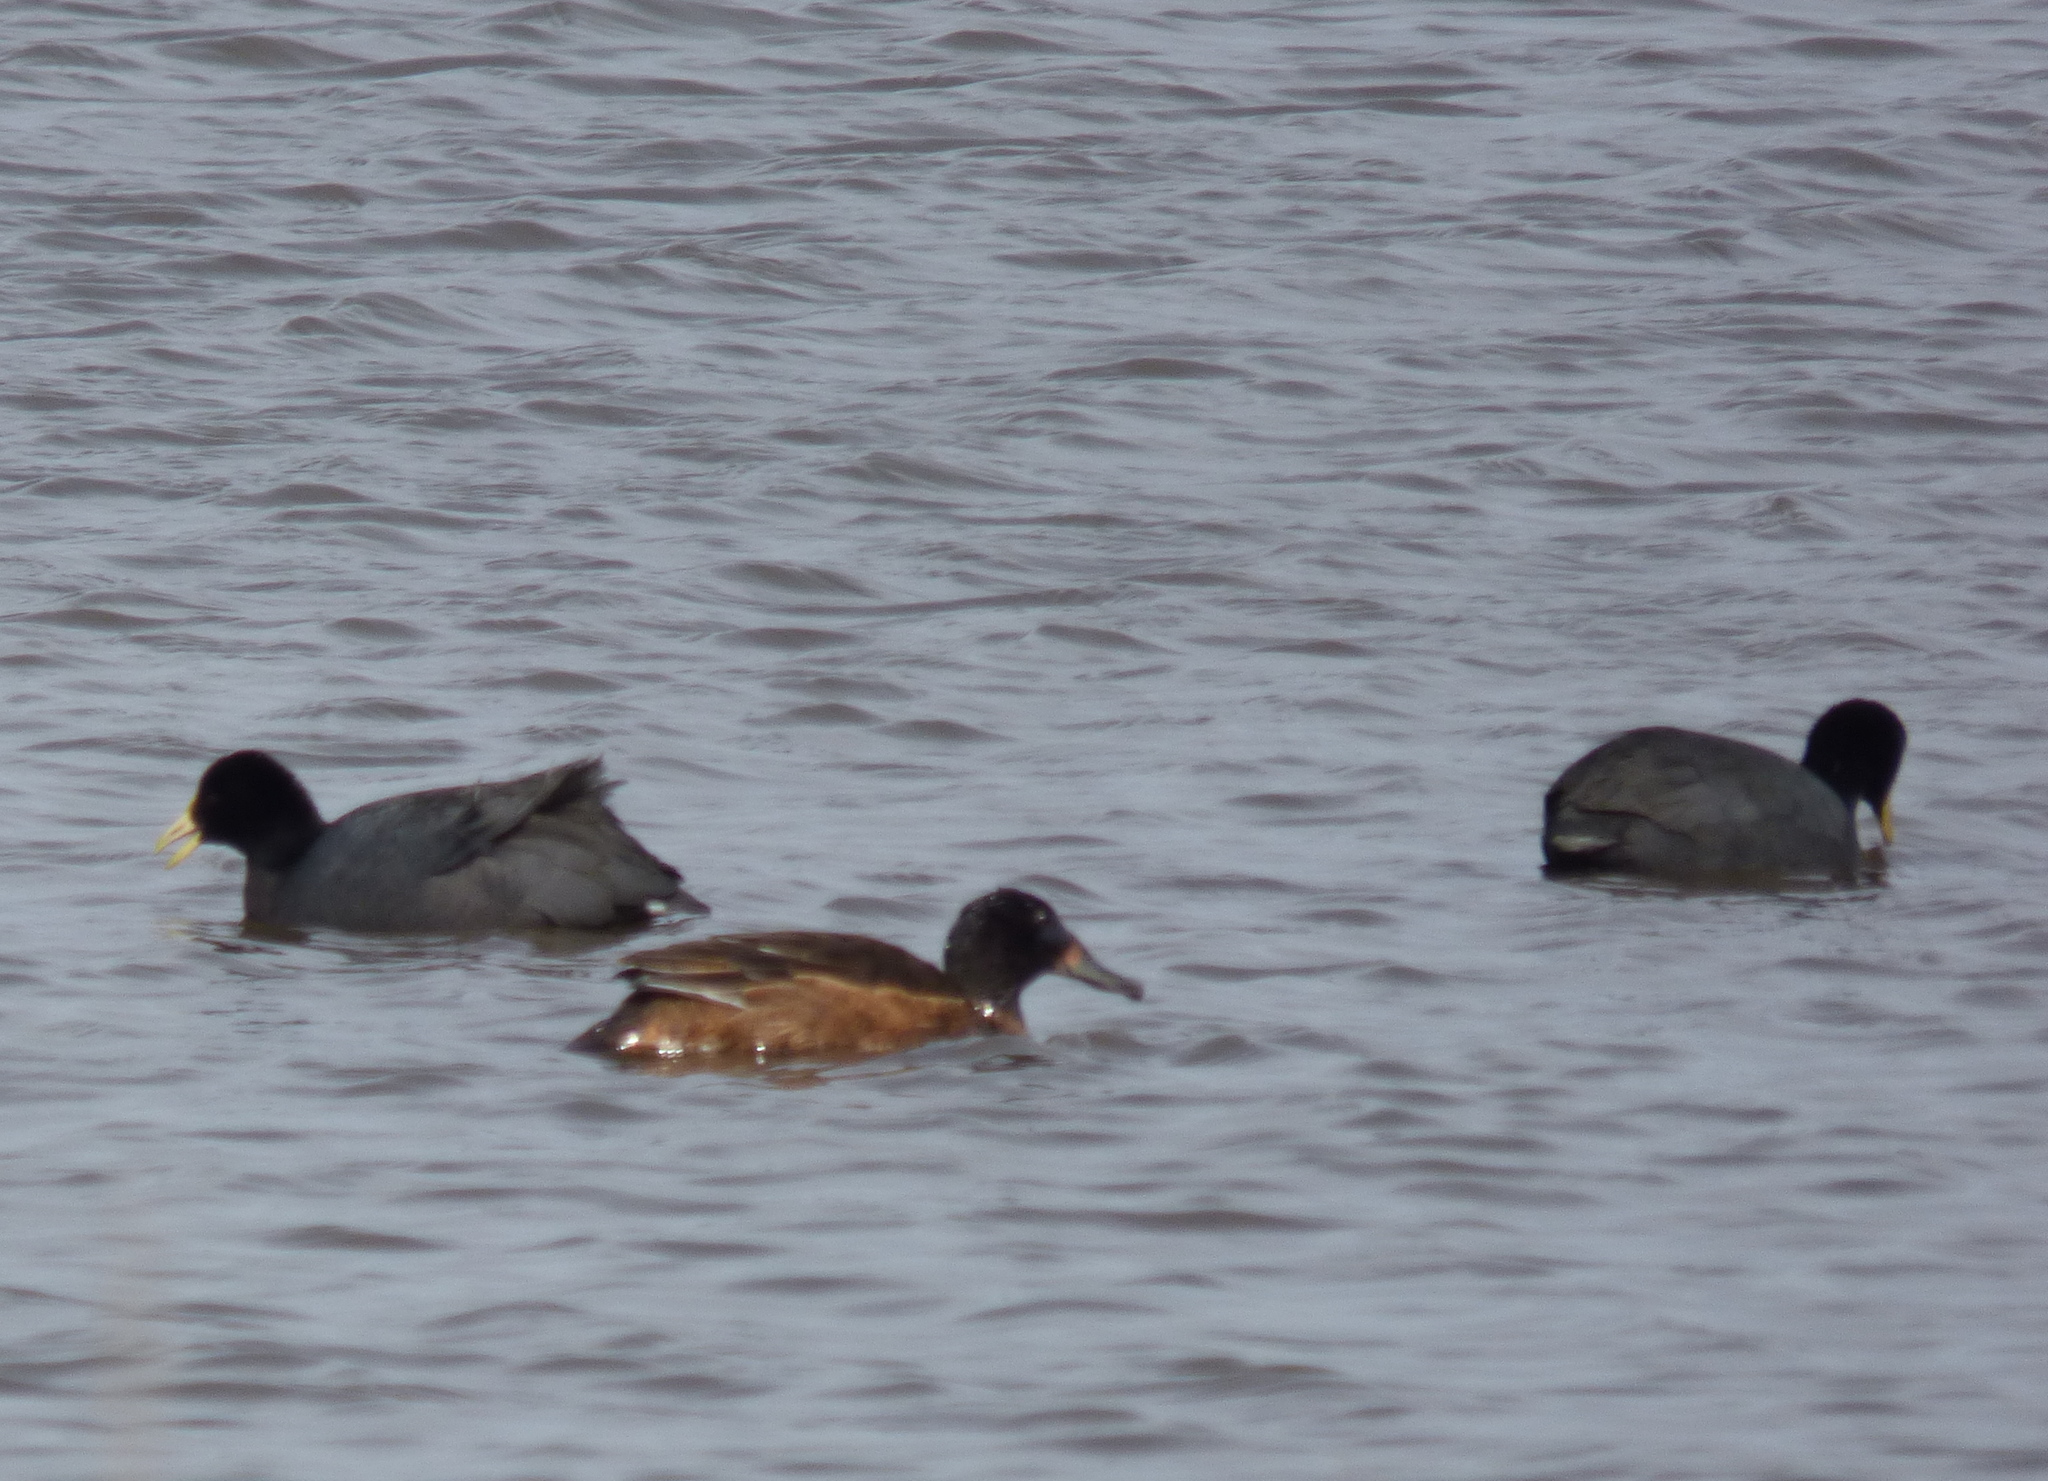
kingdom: Animalia
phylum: Chordata
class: Aves
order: Anseriformes
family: Anatidae
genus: Heteronetta
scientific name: Heteronetta atricapilla
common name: Black-headed duck
